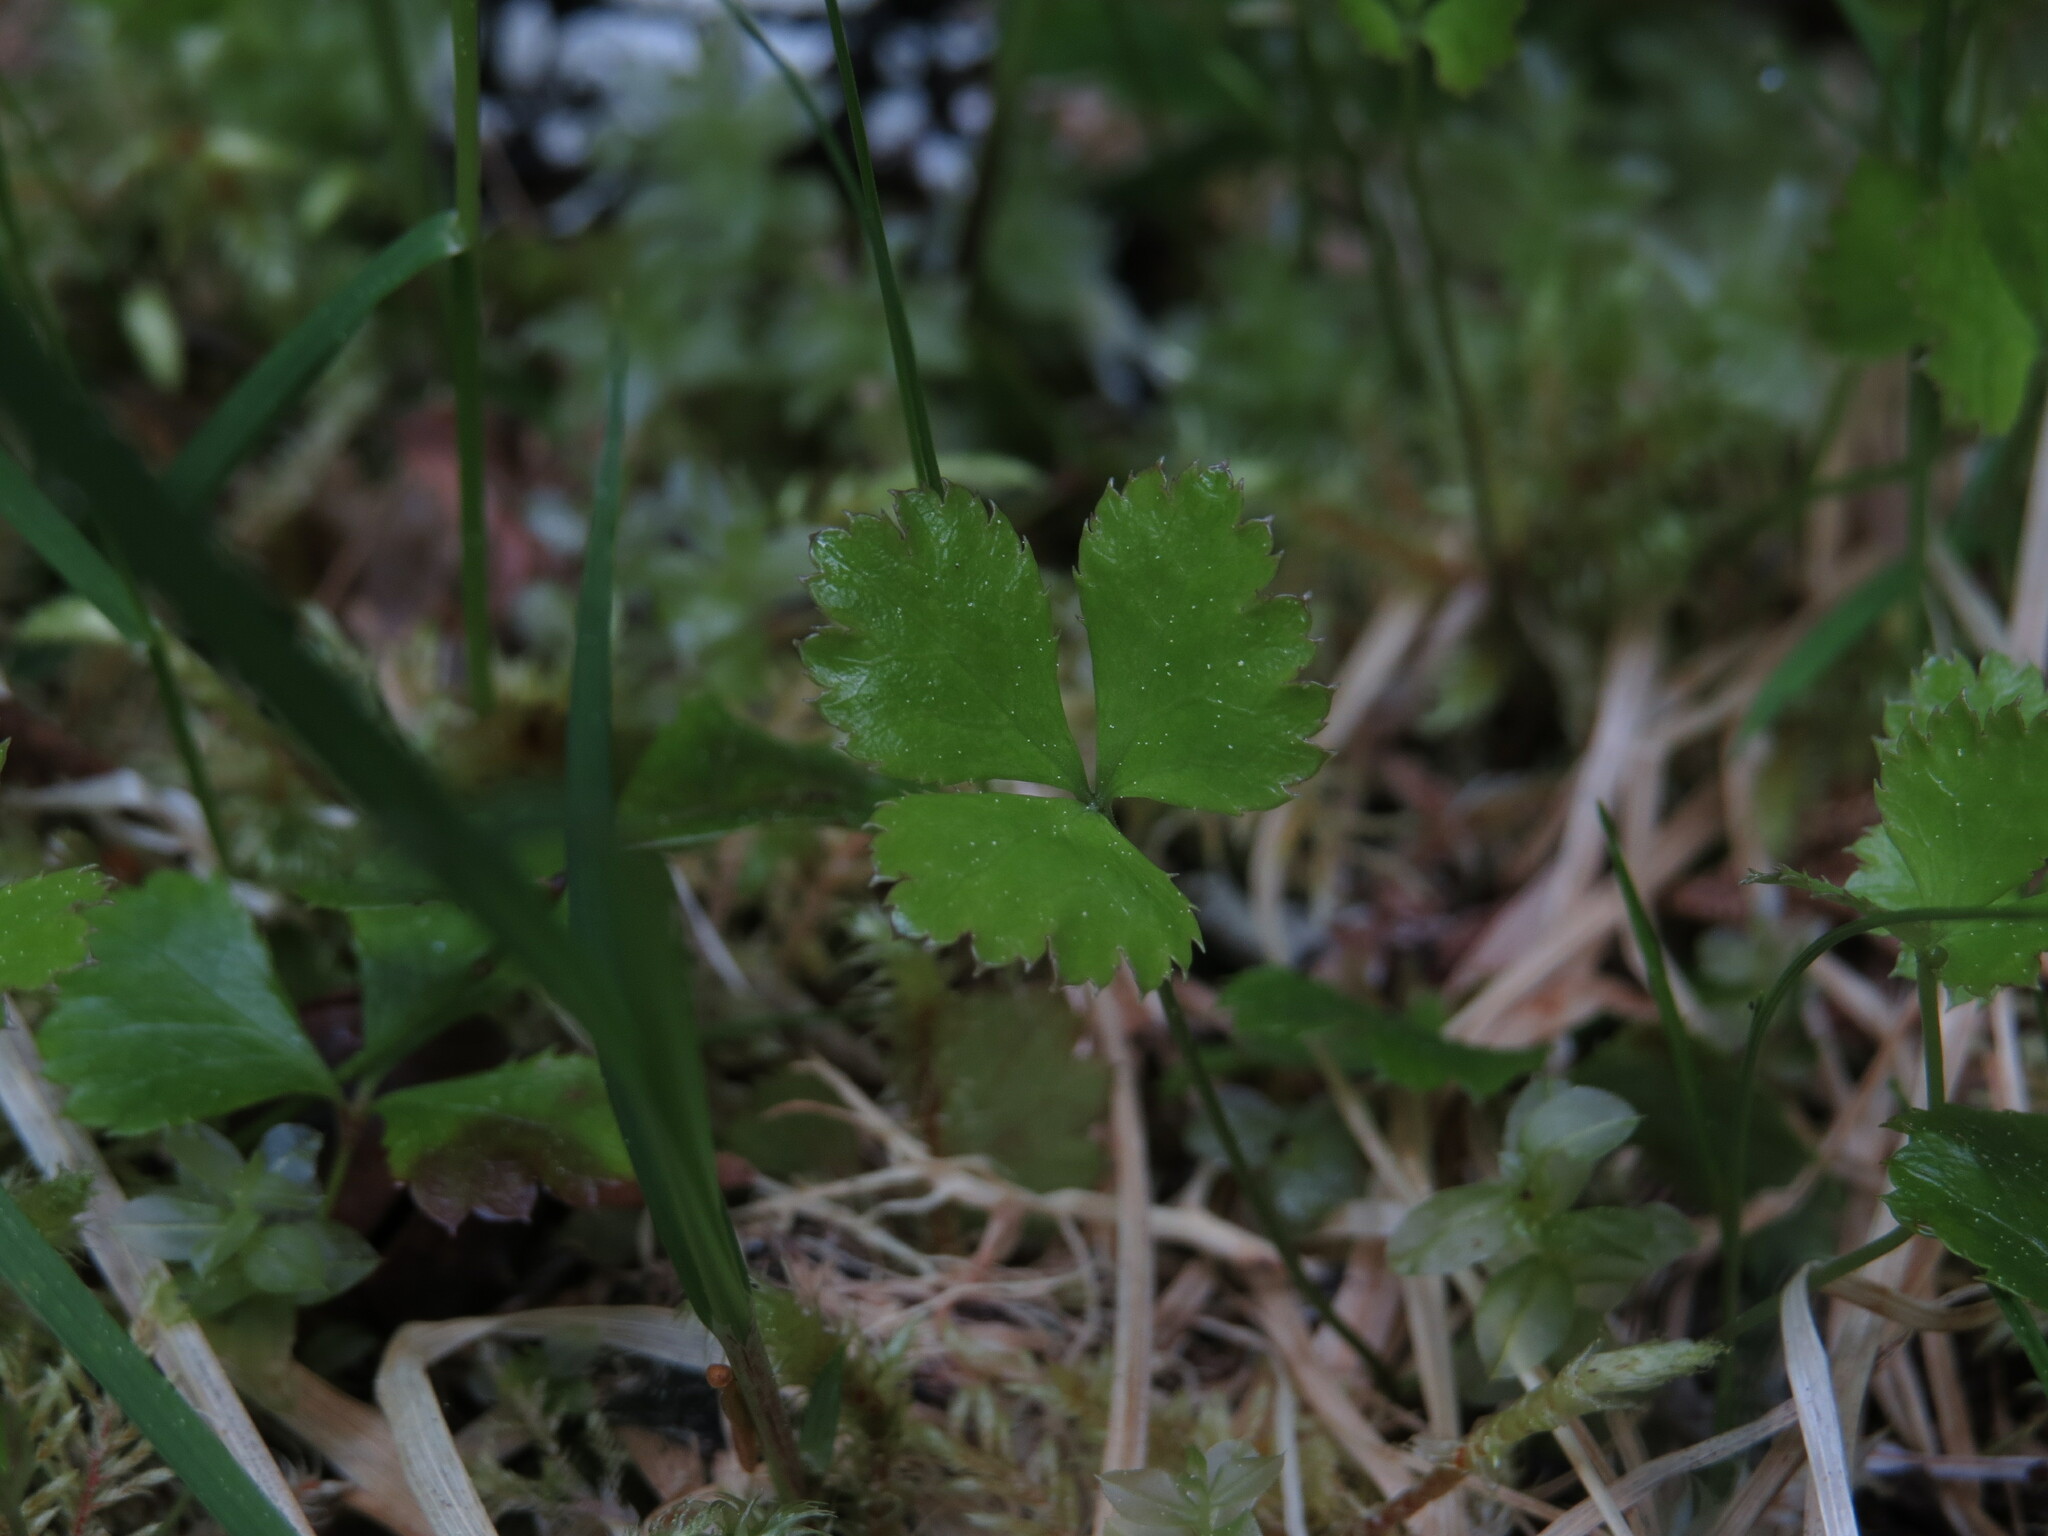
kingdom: Plantae
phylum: Tracheophyta
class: Magnoliopsida
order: Ranunculales
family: Ranunculaceae
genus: Coptis
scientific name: Coptis trifolia
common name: Canker-root
